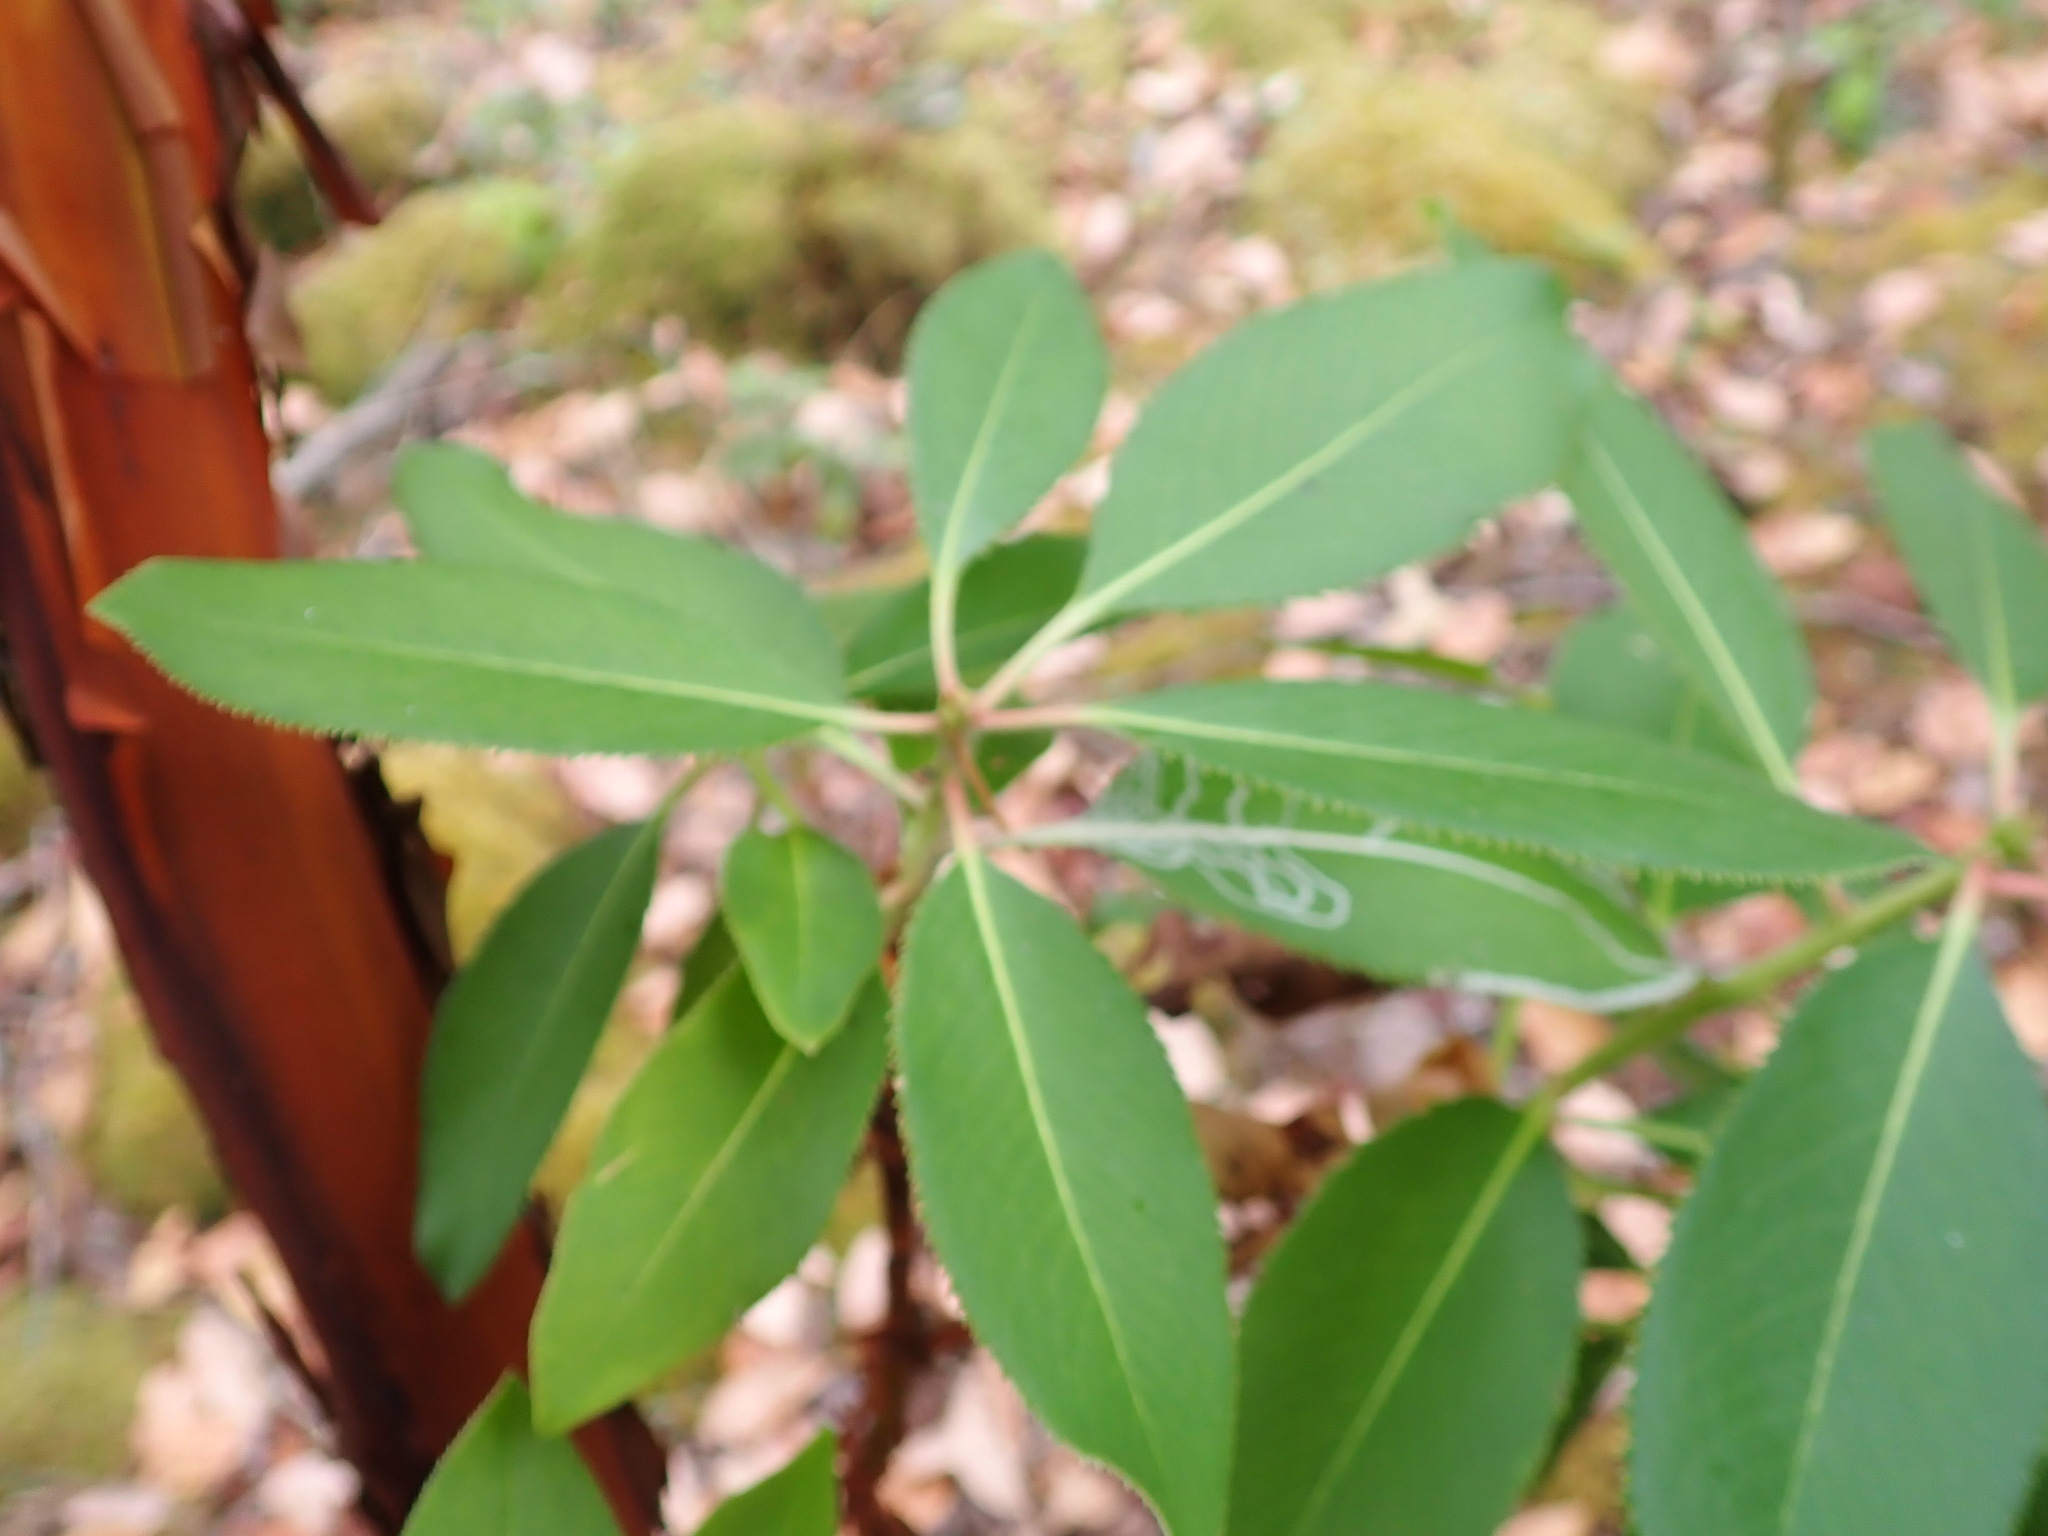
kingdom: Plantae
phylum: Tracheophyta
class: Magnoliopsida
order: Ericales
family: Ericaceae
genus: Arbutus
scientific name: Arbutus menziesii
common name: Pacific madrone
